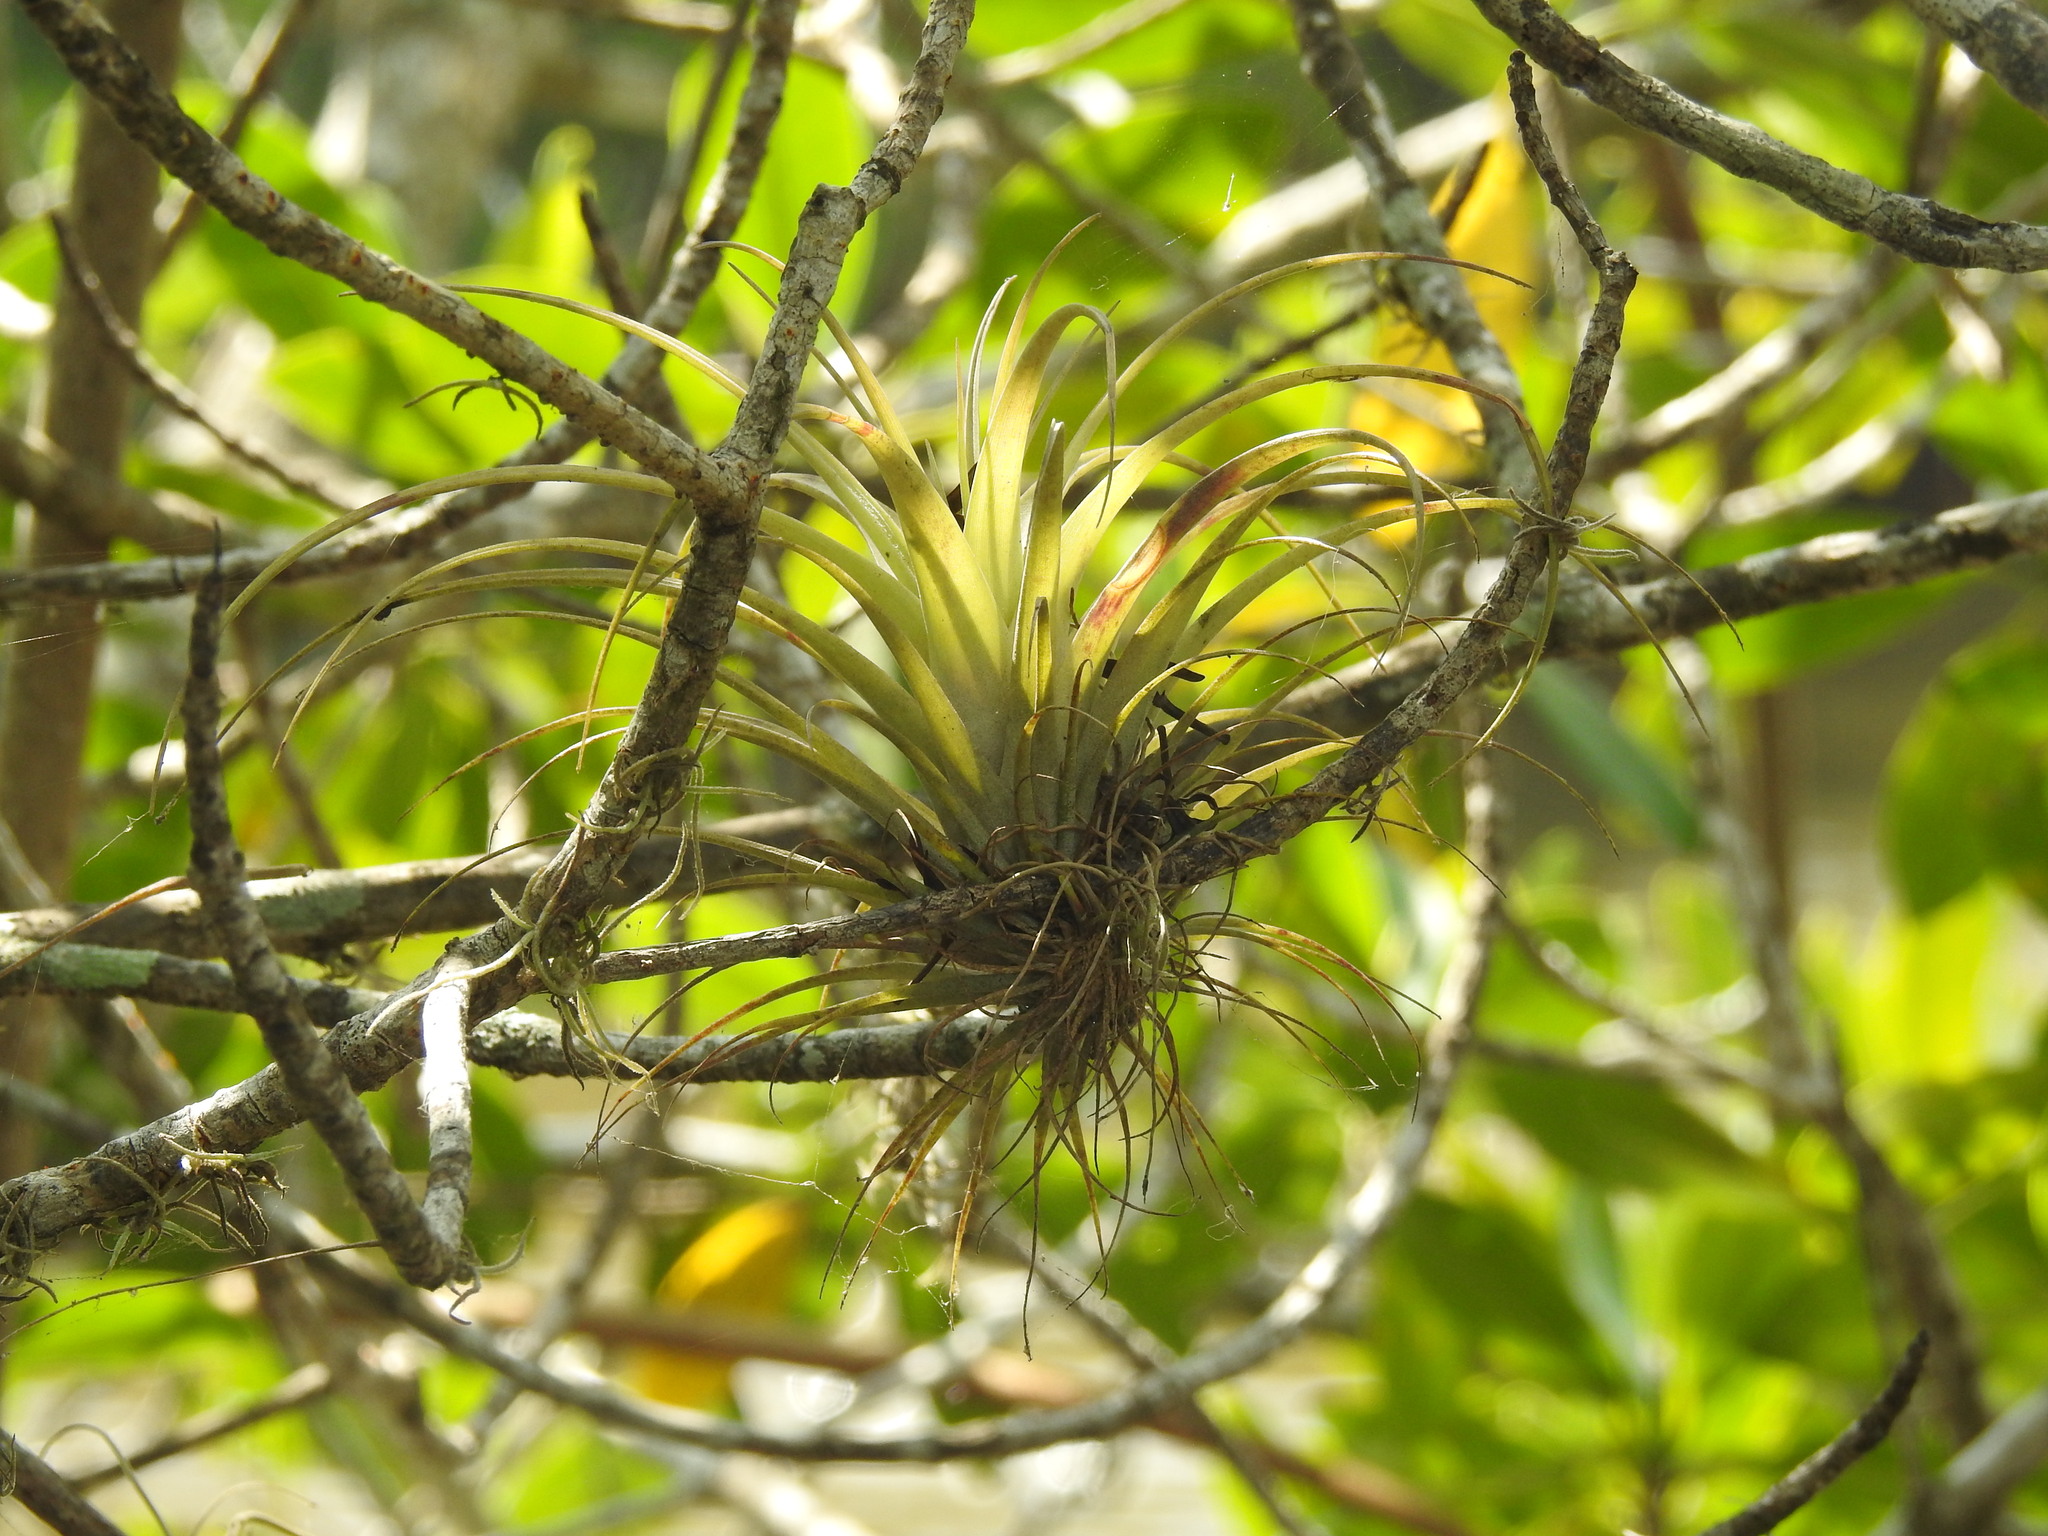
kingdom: Plantae
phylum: Tracheophyta
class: Liliopsida
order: Poales
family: Bromeliaceae
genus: Tillandsia
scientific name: Tillandsia utriculata
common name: Wild pine
